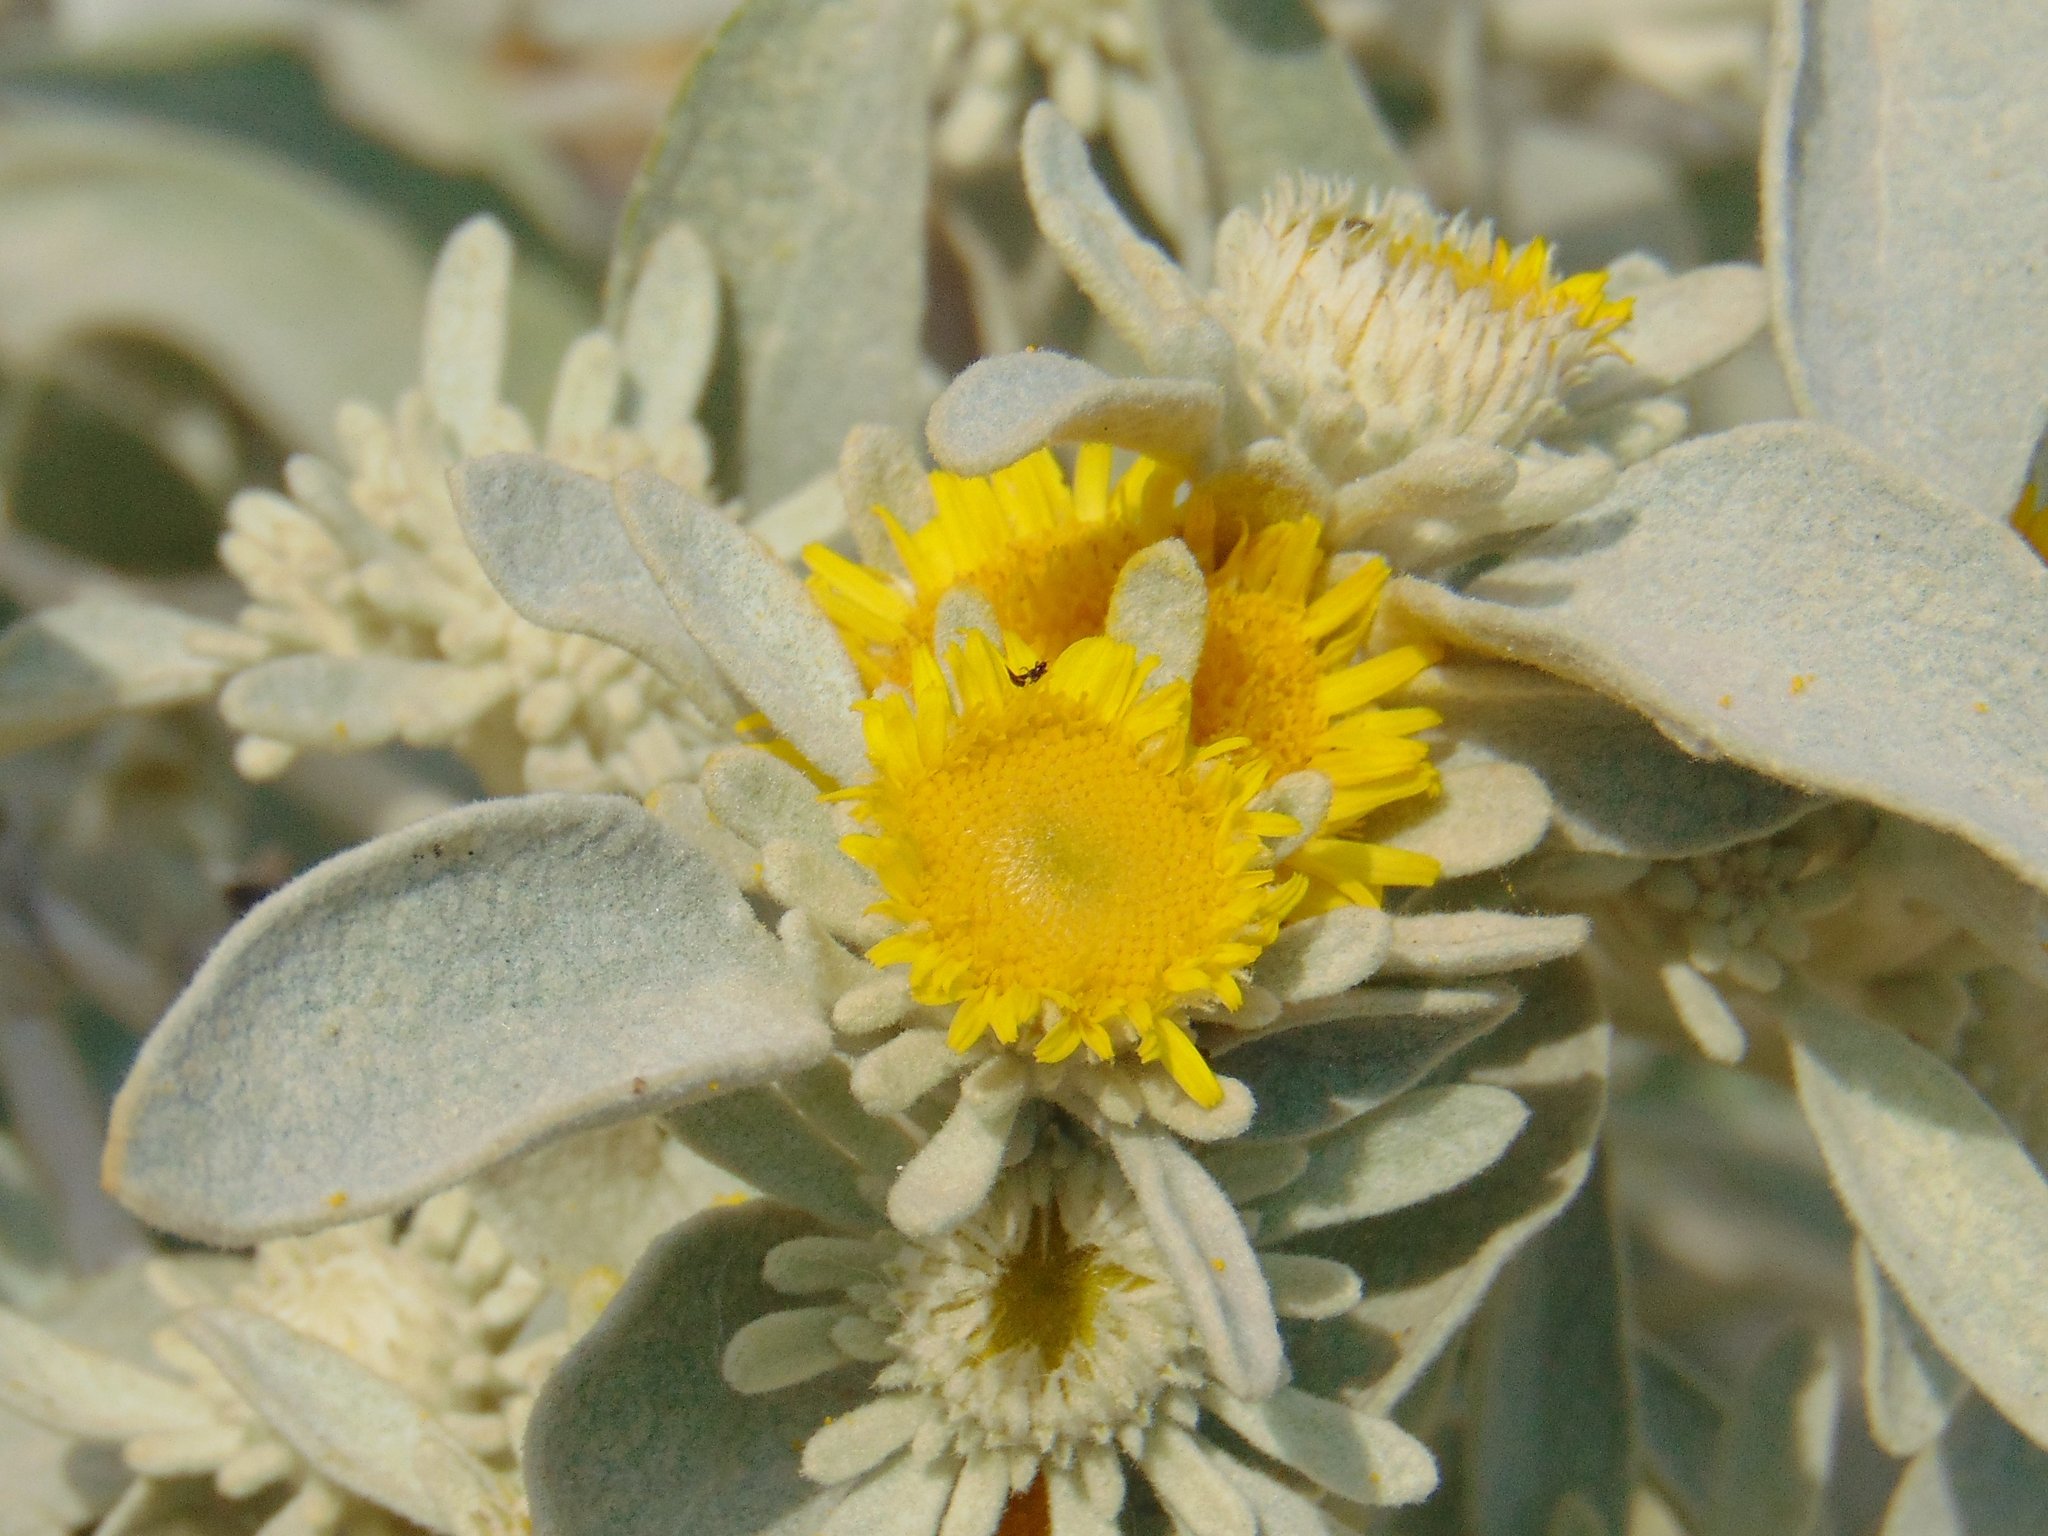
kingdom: Plantae
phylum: Tracheophyta
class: Magnoliopsida
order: Asterales
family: Asteraceae
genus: Pentanema
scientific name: Pentanema verbascifolium
